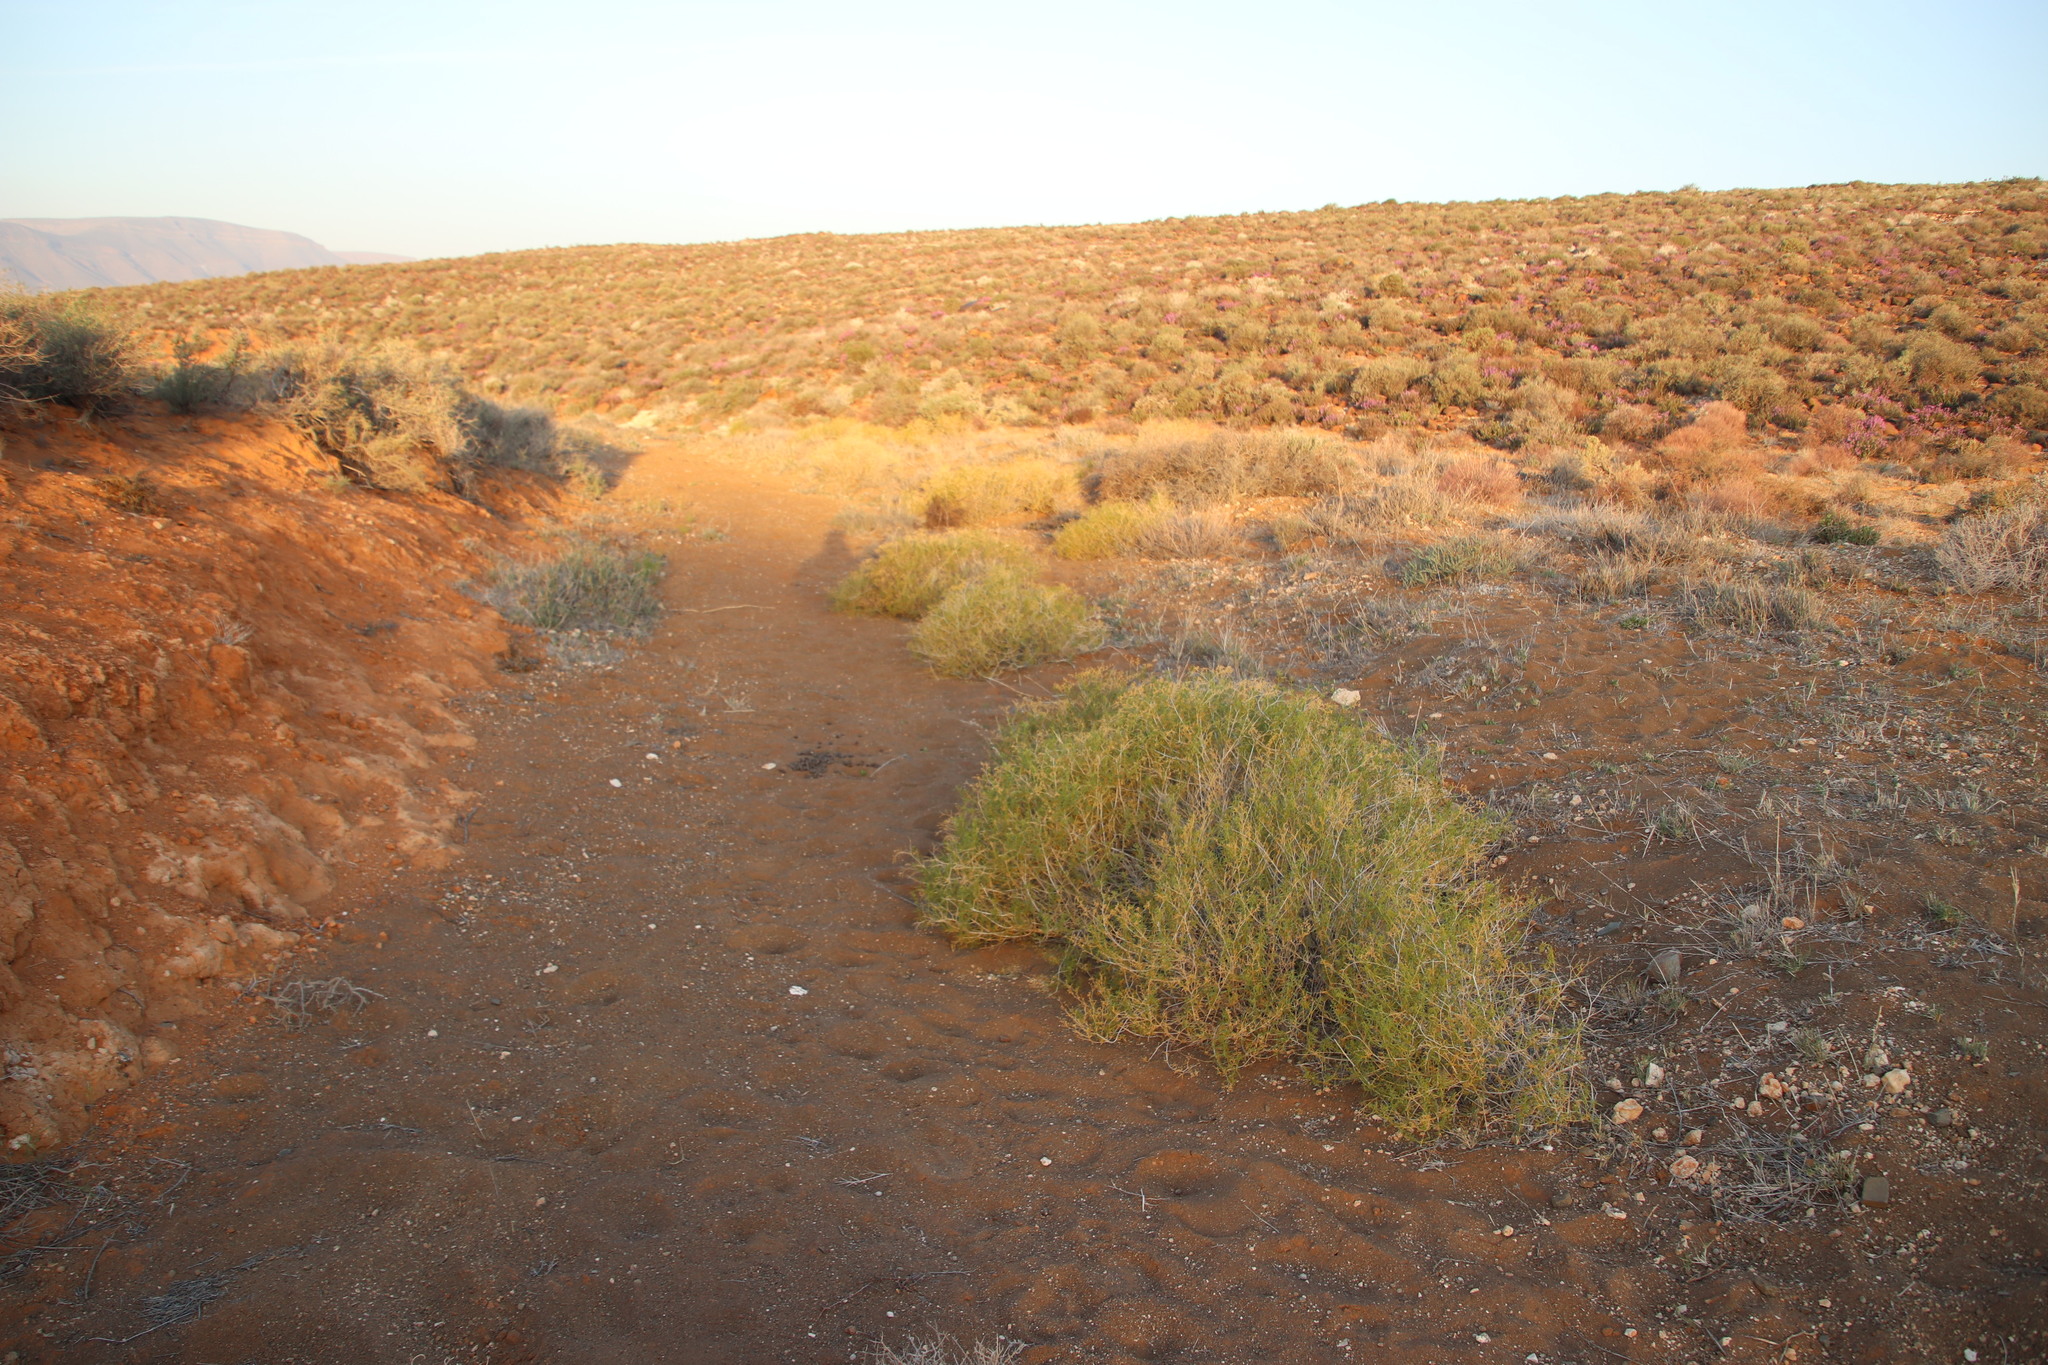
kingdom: Plantae
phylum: Tracheophyta
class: Magnoliopsida
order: Caryophyllales
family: Aizoaceae
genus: Aizoon
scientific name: Aizoon africanum
